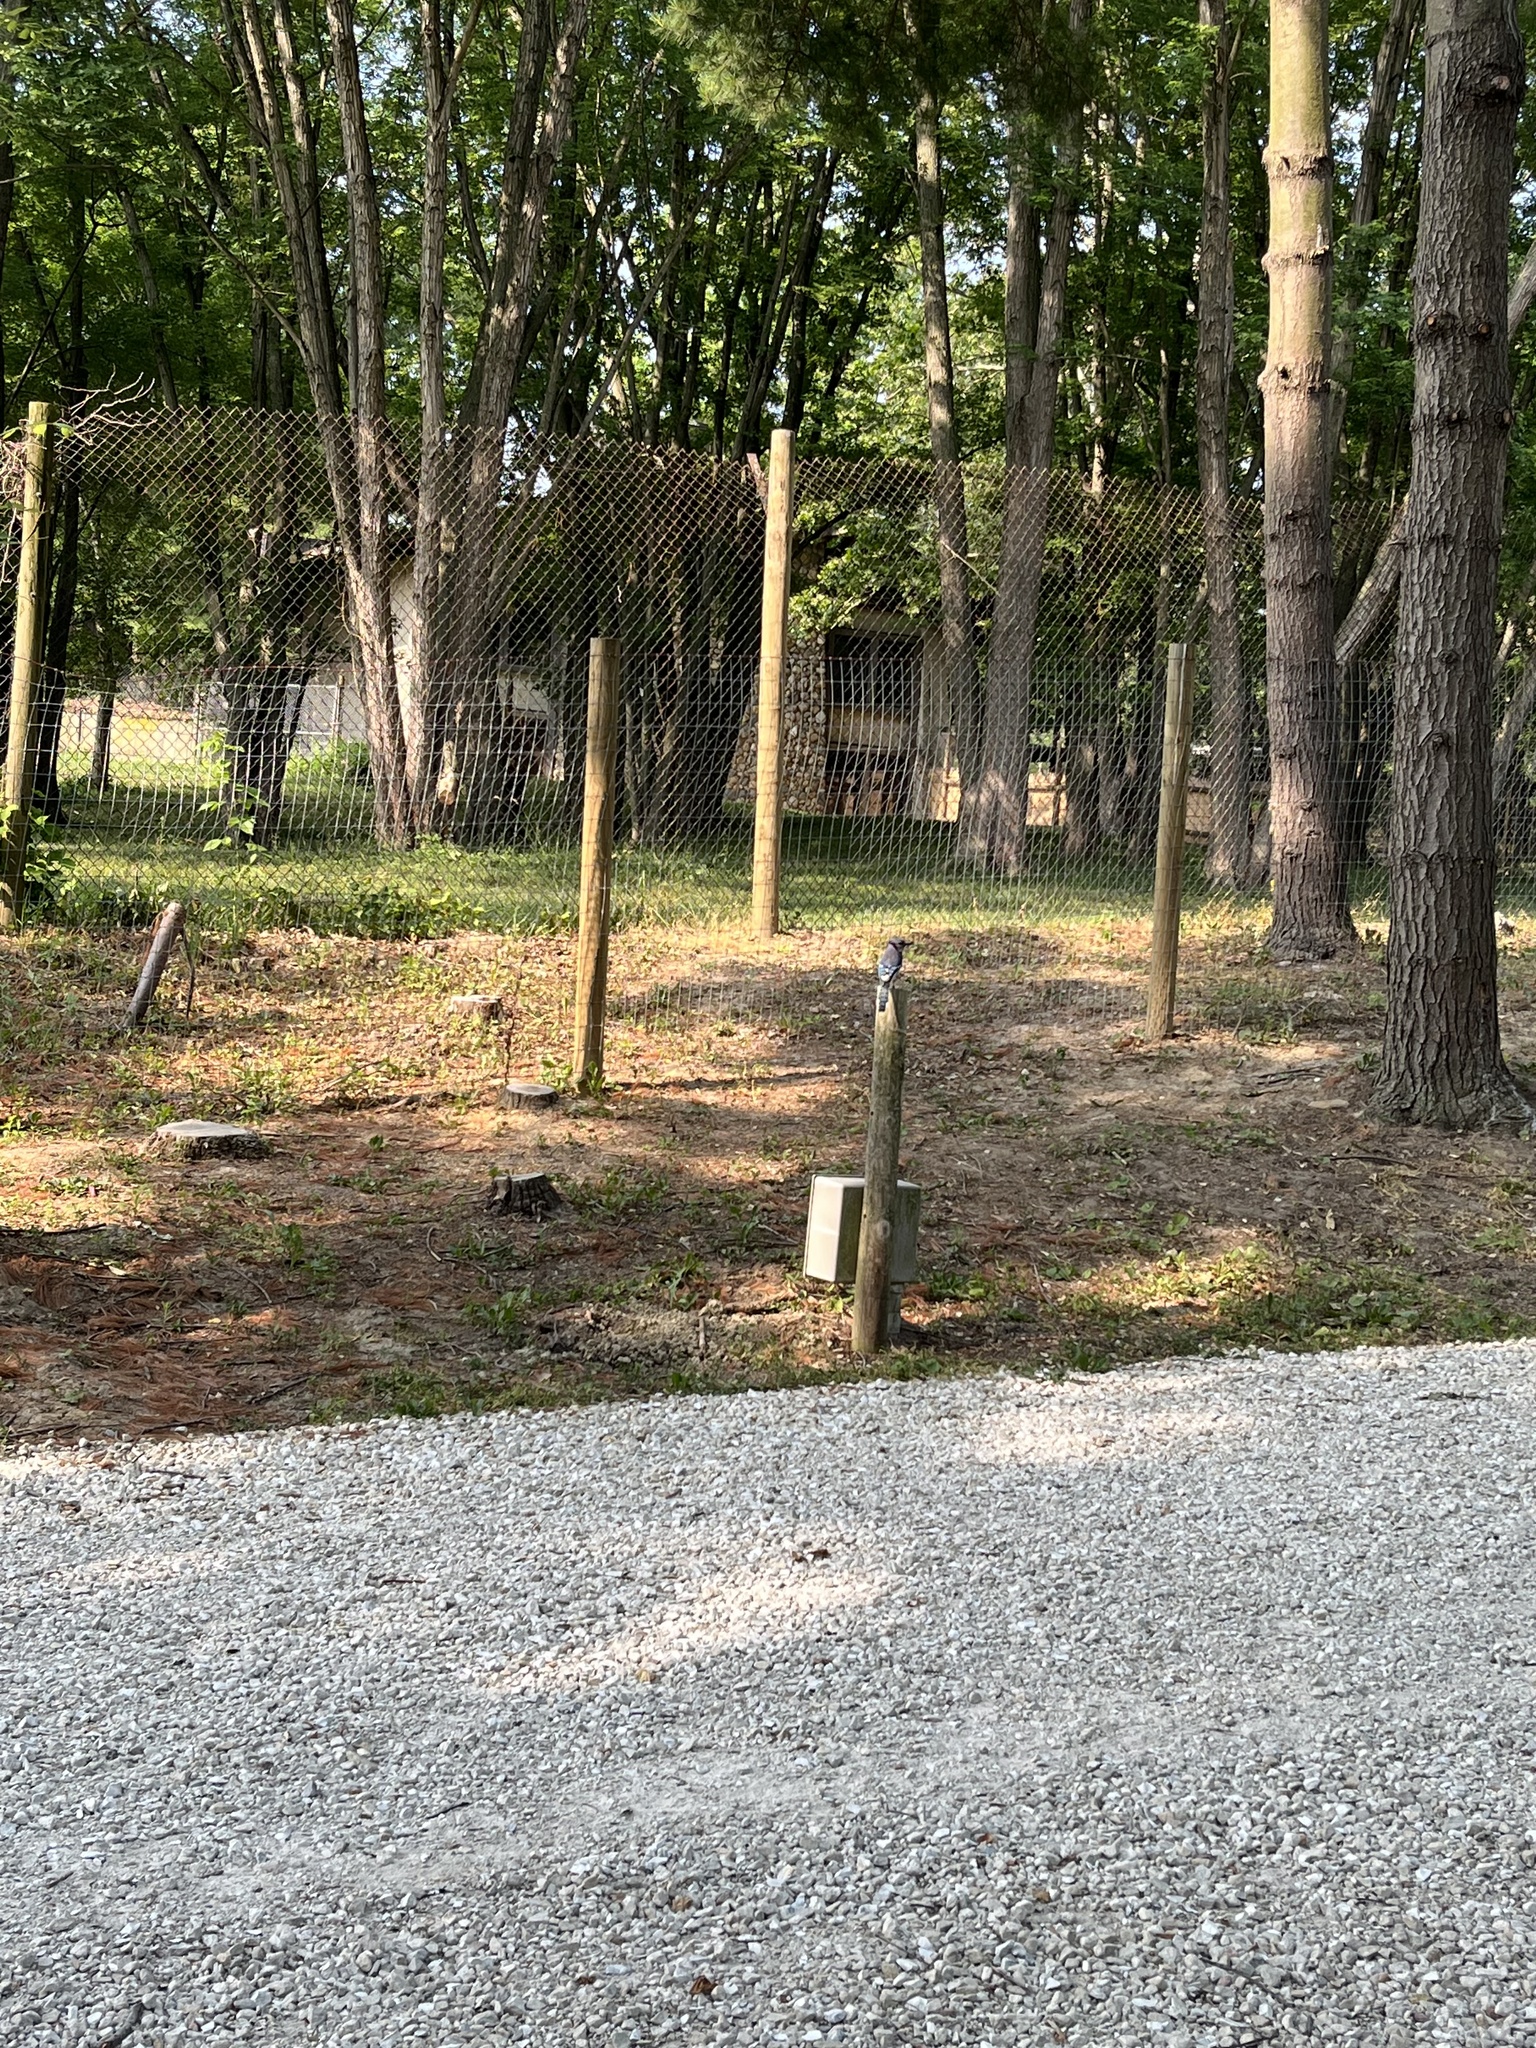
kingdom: Animalia
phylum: Chordata
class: Aves
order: Passeriformes
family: Corvidae
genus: Cyanocitta
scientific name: Cyanocitta cristata
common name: Blue jay
